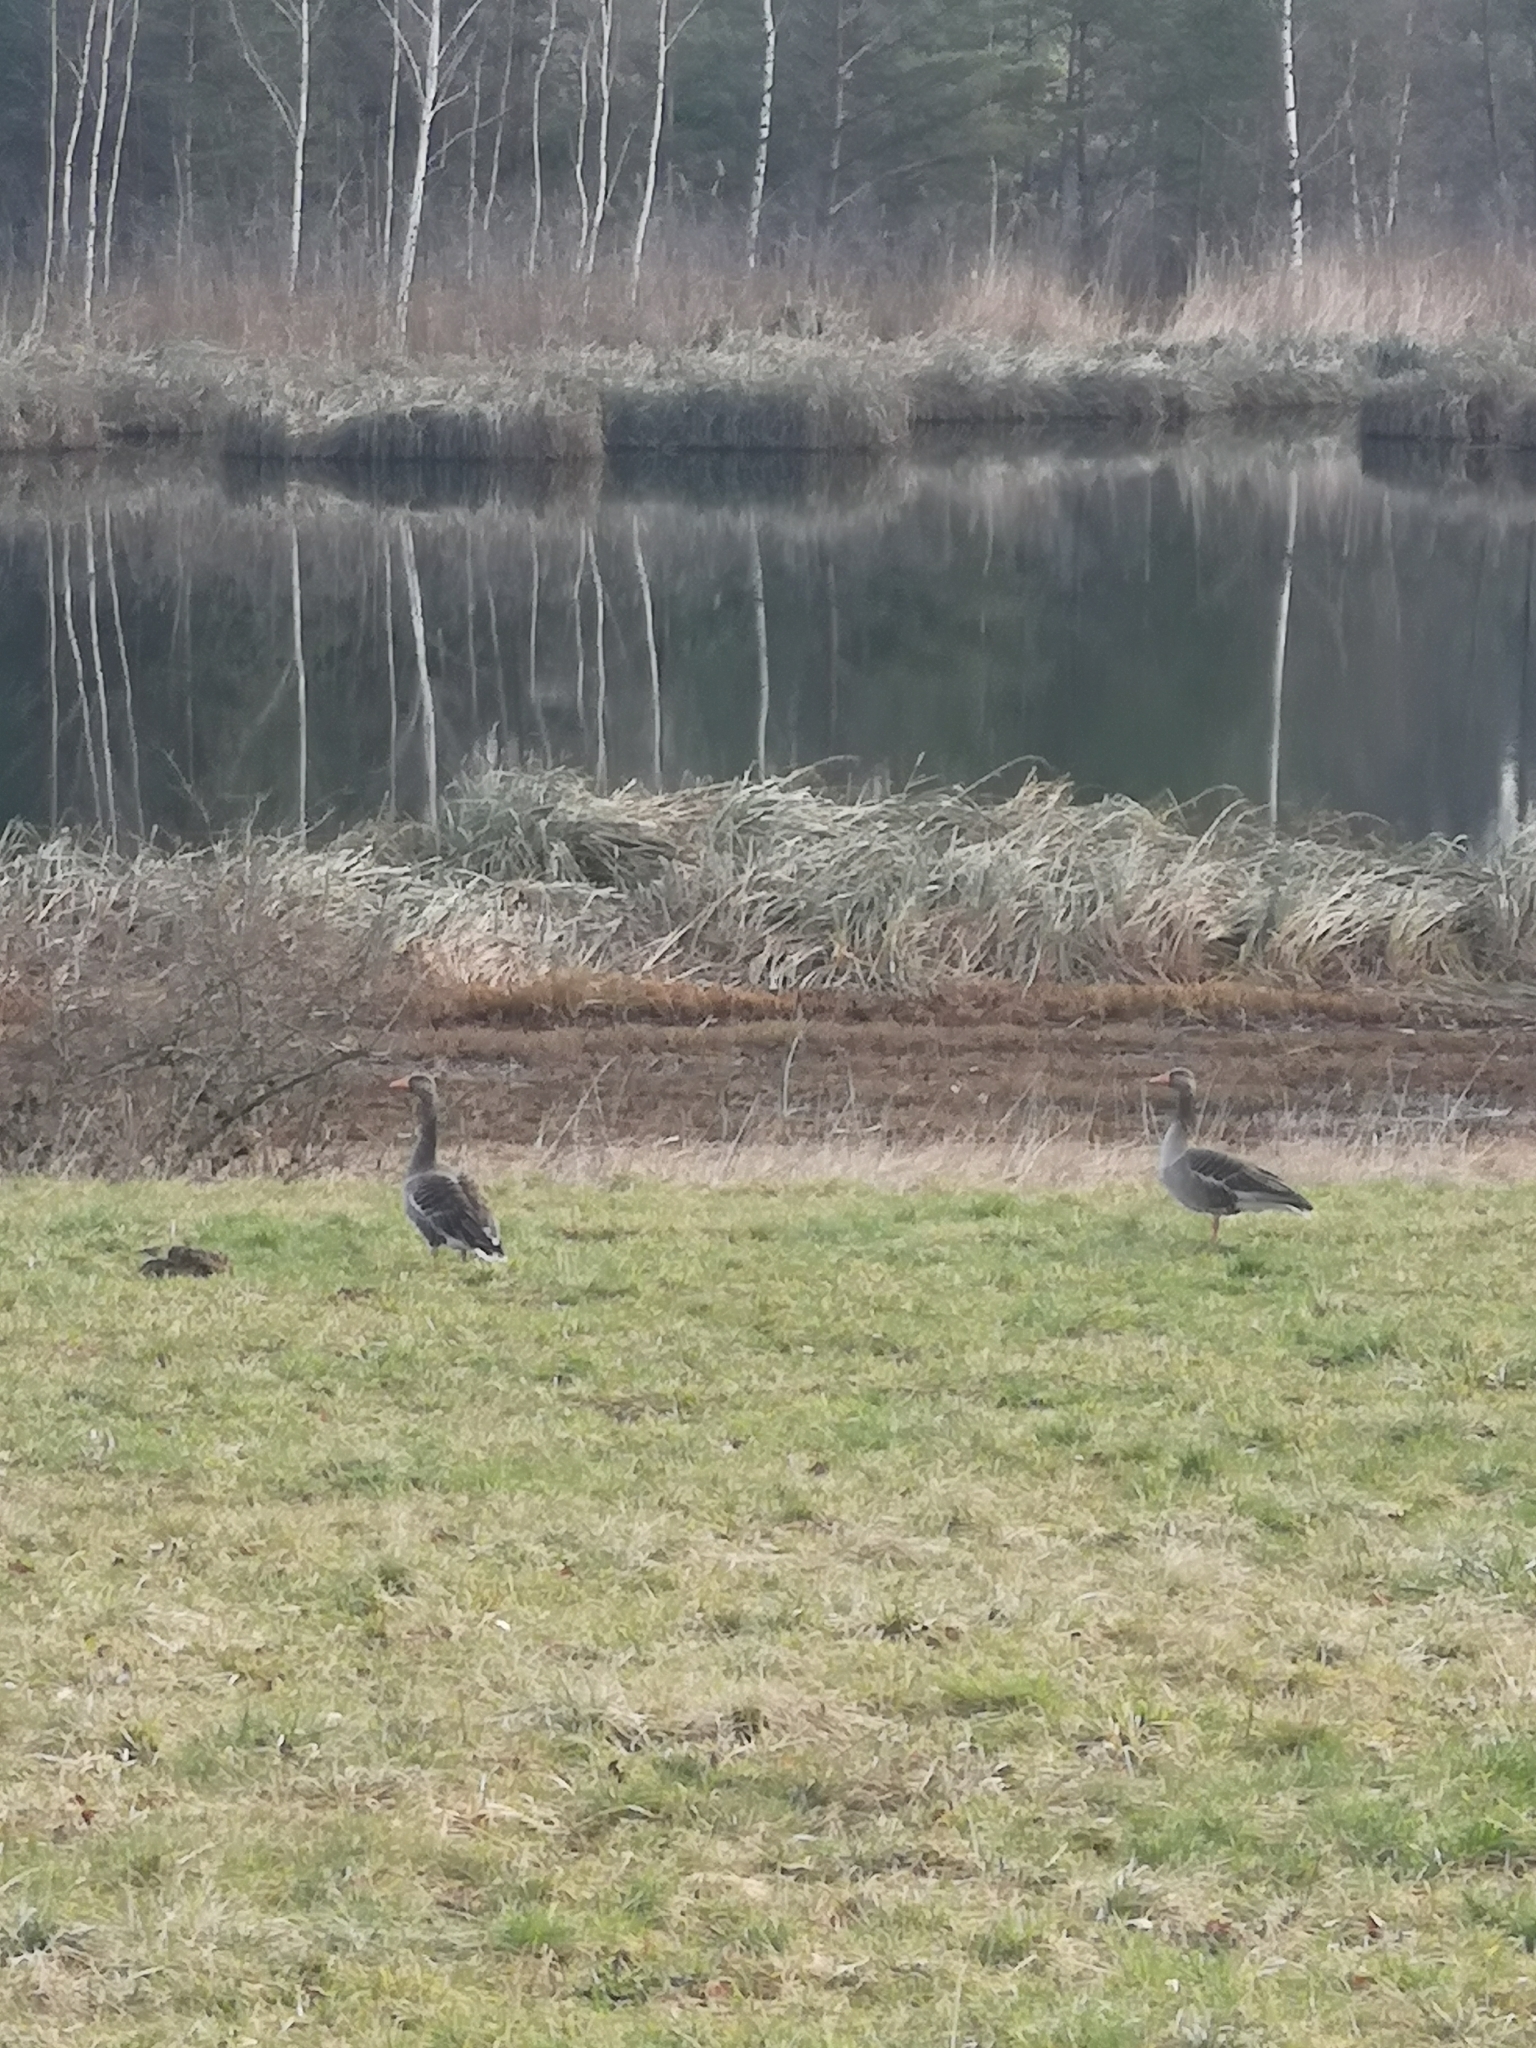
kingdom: Animalia
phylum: Chordata
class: Aves
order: Anseriformes
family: Anatidae
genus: Anser
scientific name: Anser anser
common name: Greylag goose
